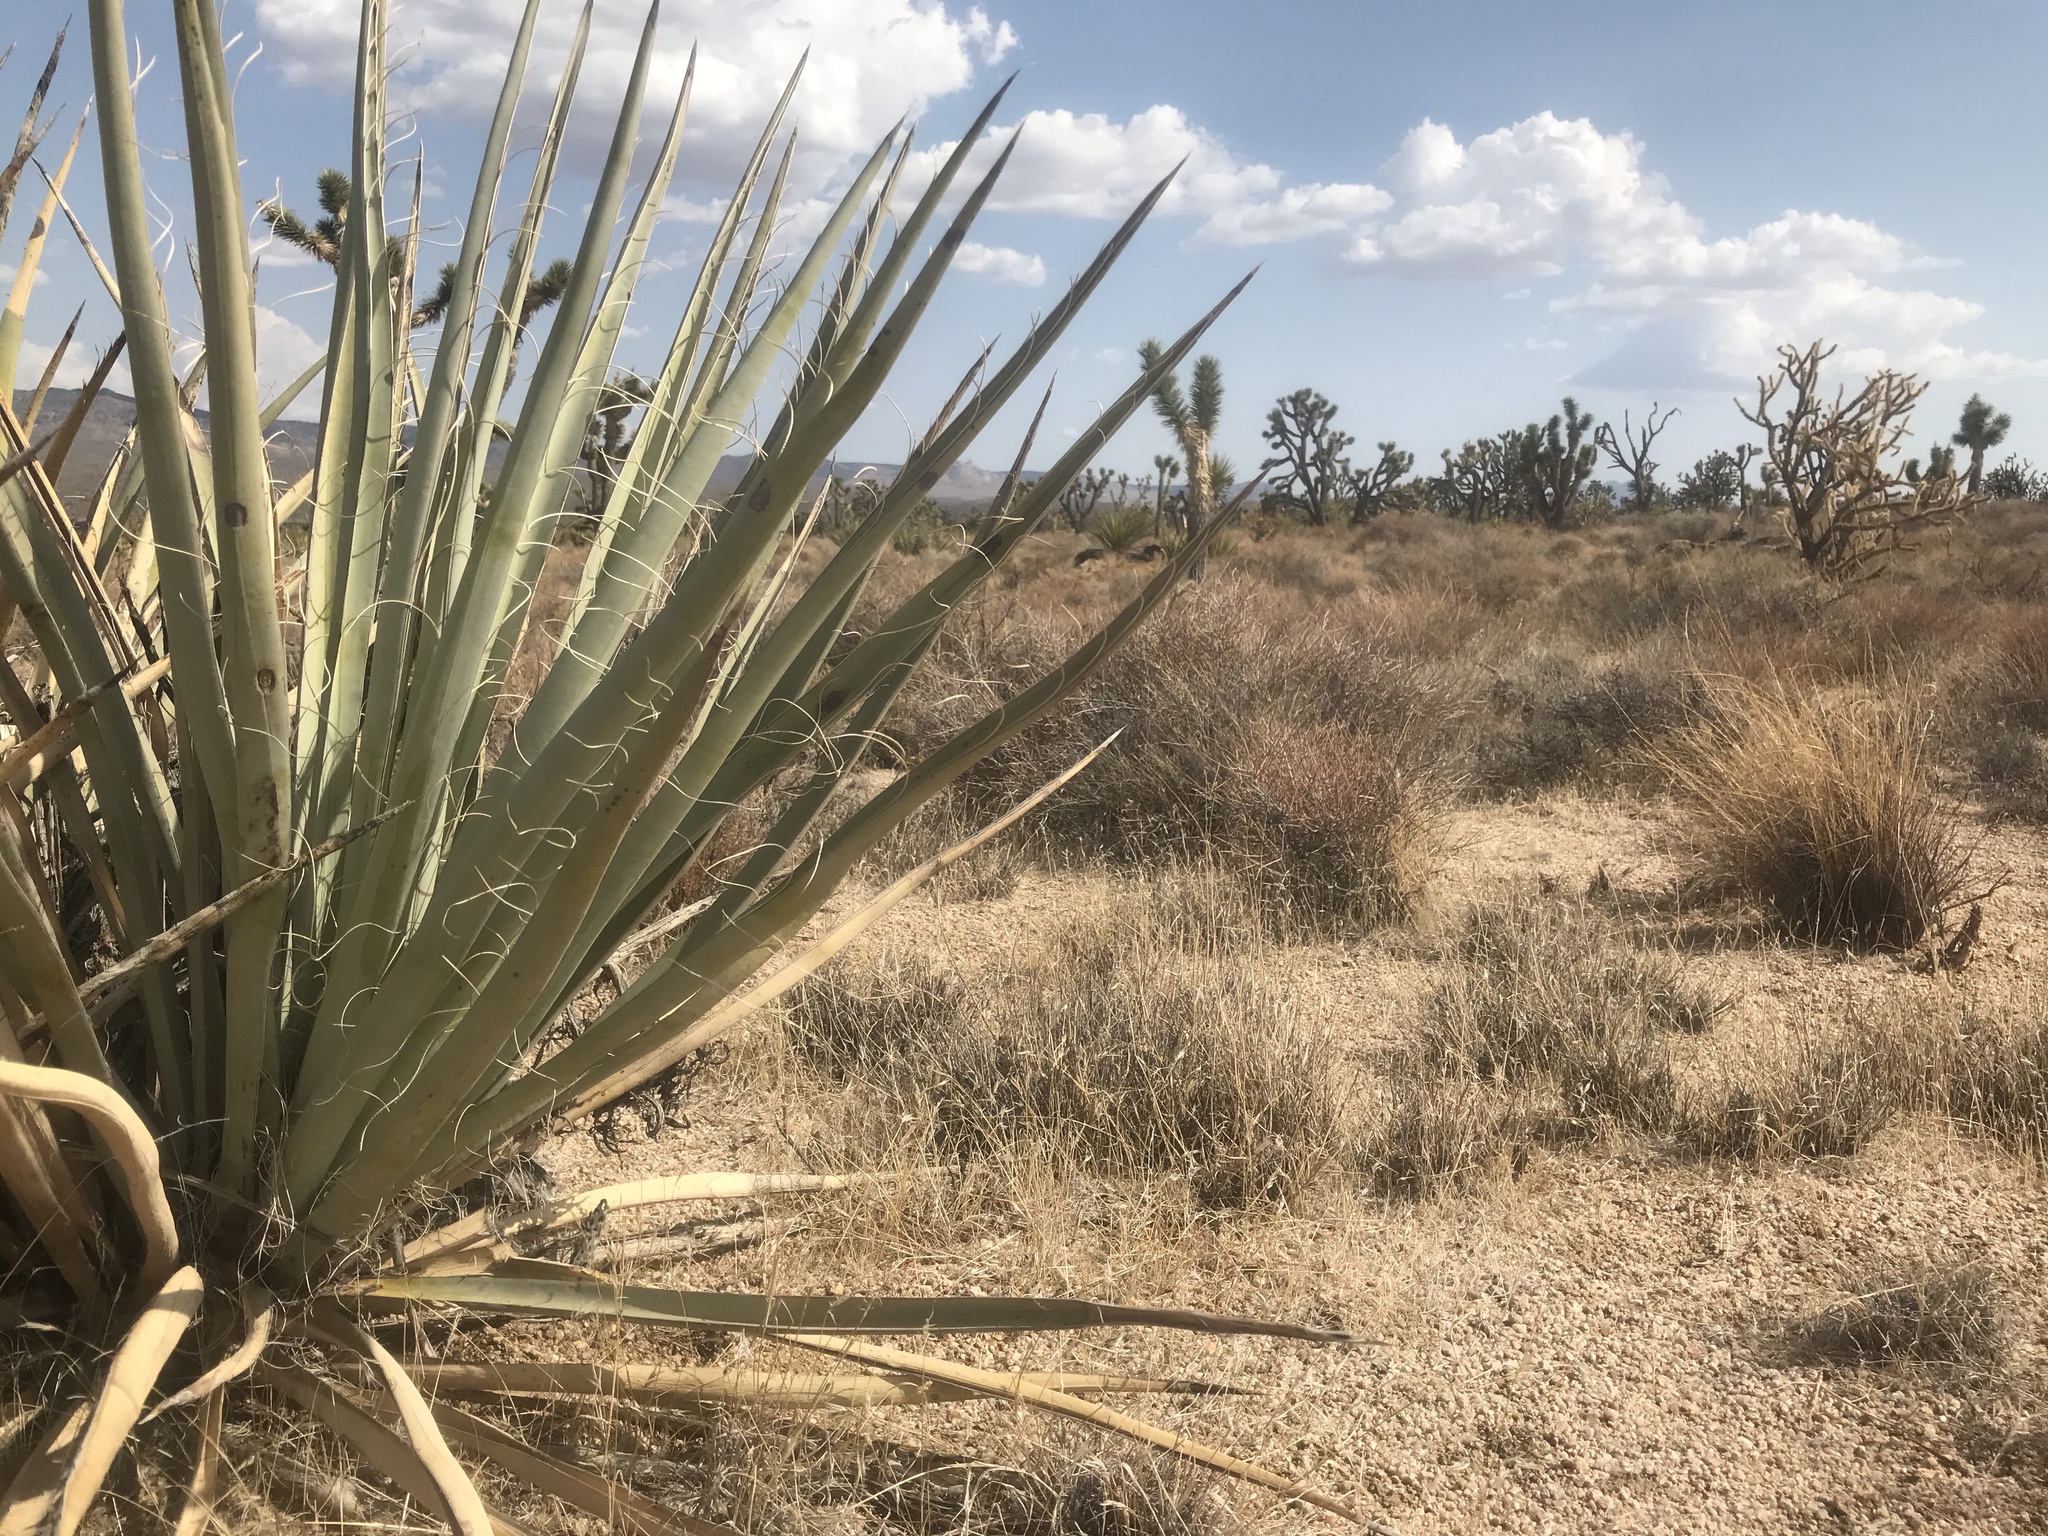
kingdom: Plantae
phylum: Tracheophyta
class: Liliopsida
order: Asparagales
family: Asparagaceae
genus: Yucca
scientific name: Yucca baccata
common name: Banana yucca
